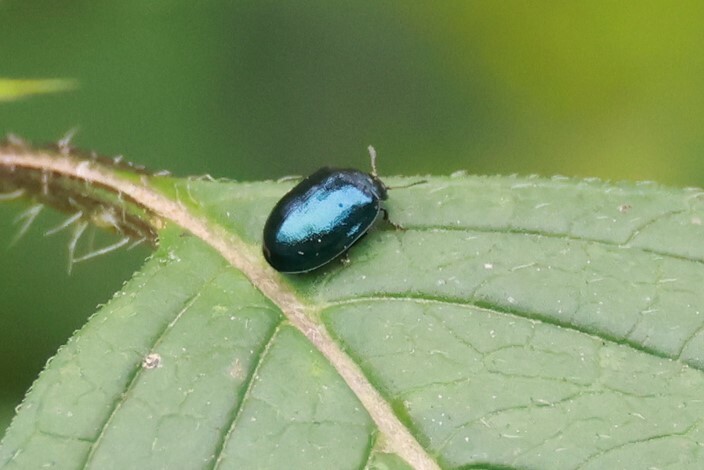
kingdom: Animalia
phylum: Arthropoda
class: Insecta
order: Coleoptera
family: Chrysomelidae
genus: Plagiodera
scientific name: Plagiodera versicolora
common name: Imported willow leaf beetle
